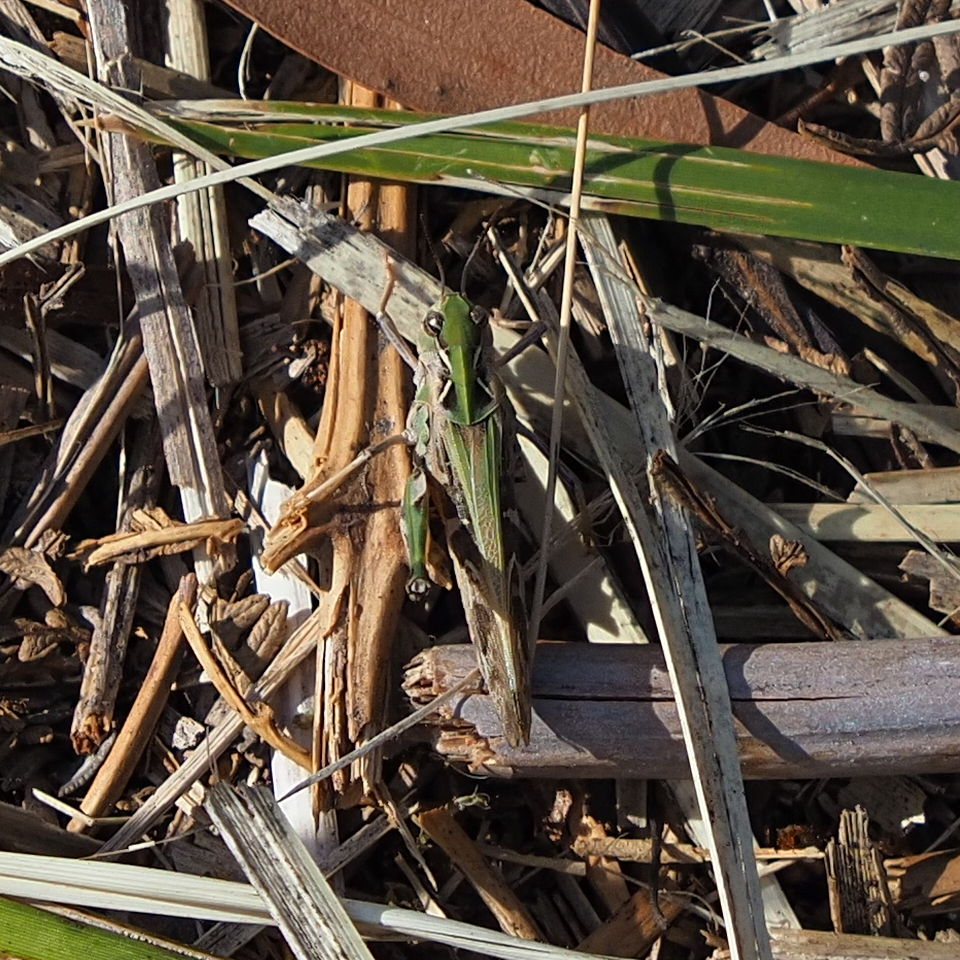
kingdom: Animalia
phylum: Arthropoda
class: Insecta
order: Orthoptera
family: Acrididae
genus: Gastrimargus
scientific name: Gastrimargus musicus
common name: Yellow-winged locust
